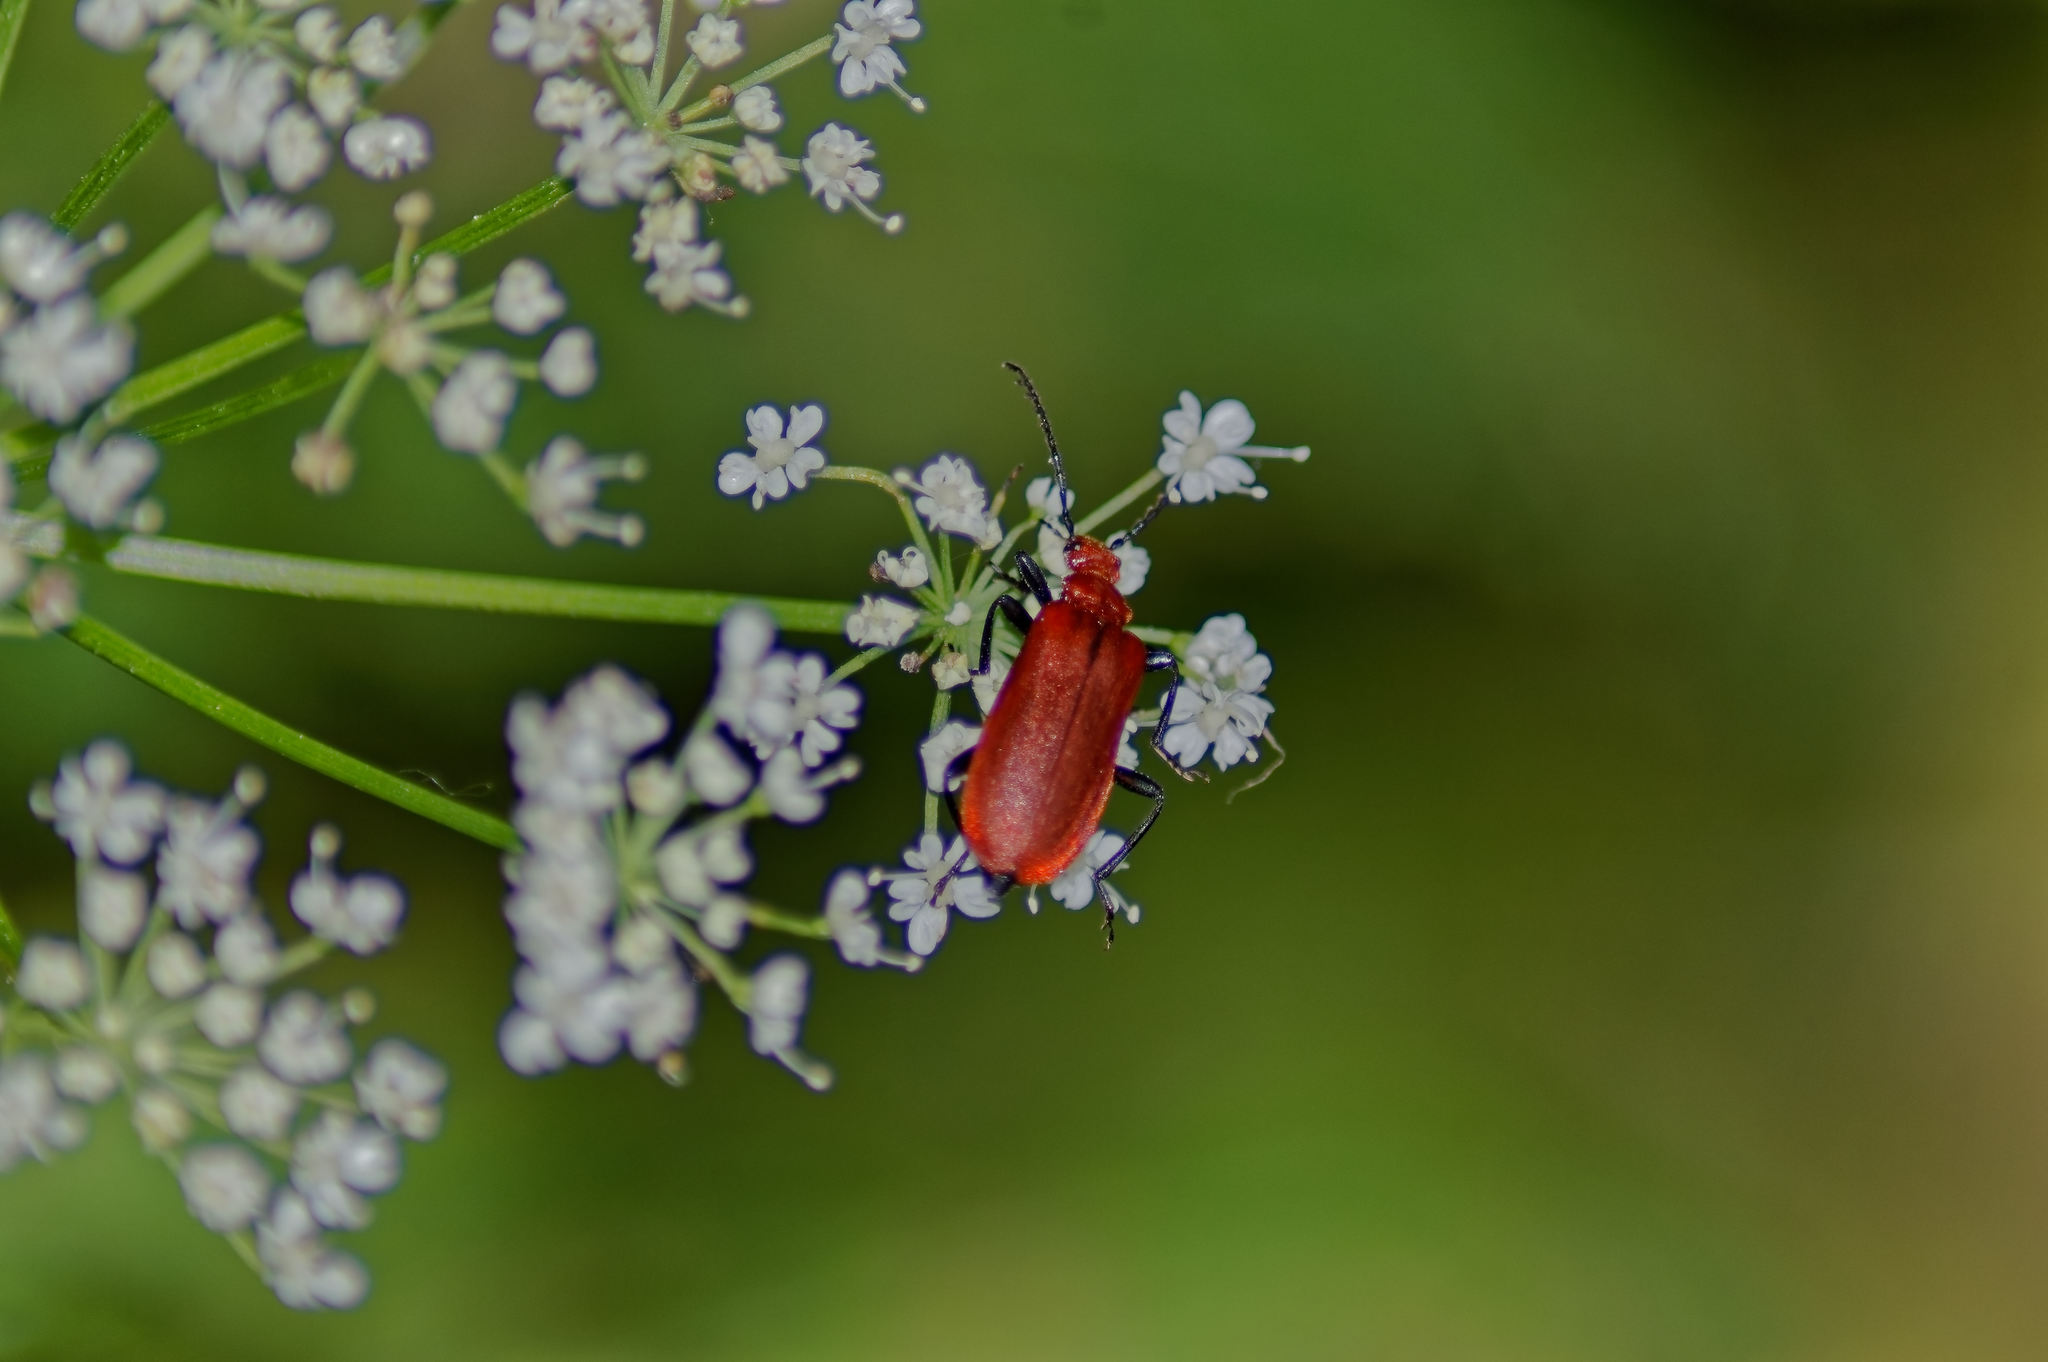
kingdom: Animalia
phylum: Arthropoda
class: Insecta
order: Coleoptera
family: Pyrochroidae
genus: Pyrochroa
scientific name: Pyrochroa serraticornis
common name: Red-headed cardinal beetle
